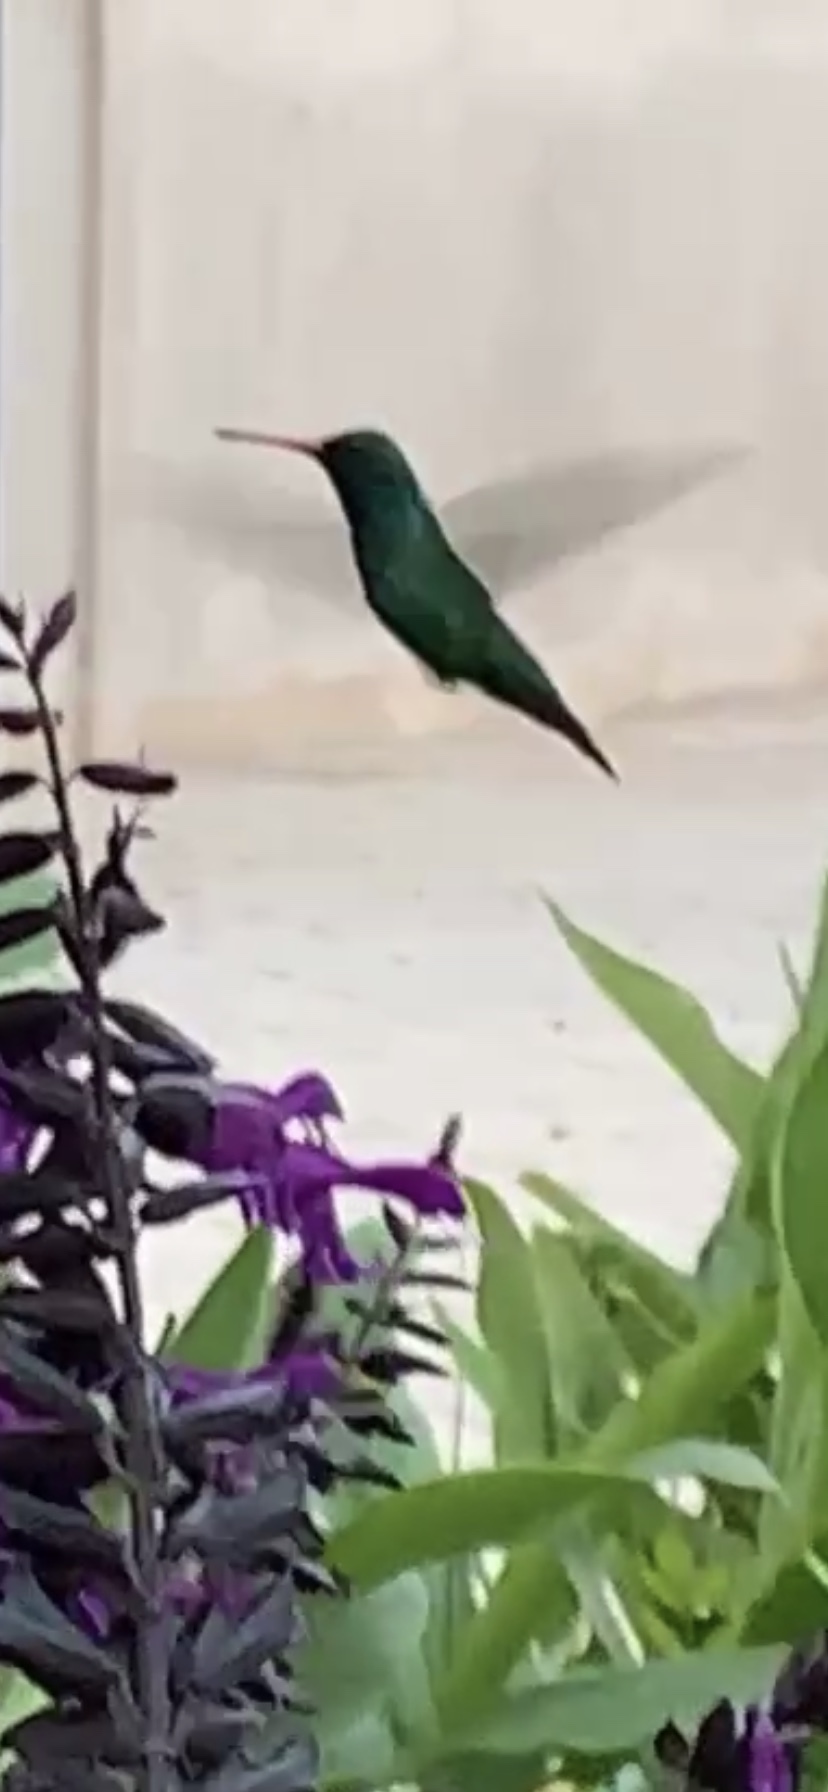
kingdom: Animalia
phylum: Chordata
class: Aves
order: Apodiformes
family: Trochilidae
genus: Chlorostilbon
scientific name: Chlorostilbon lucidus
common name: Glittering-bellied emerald
